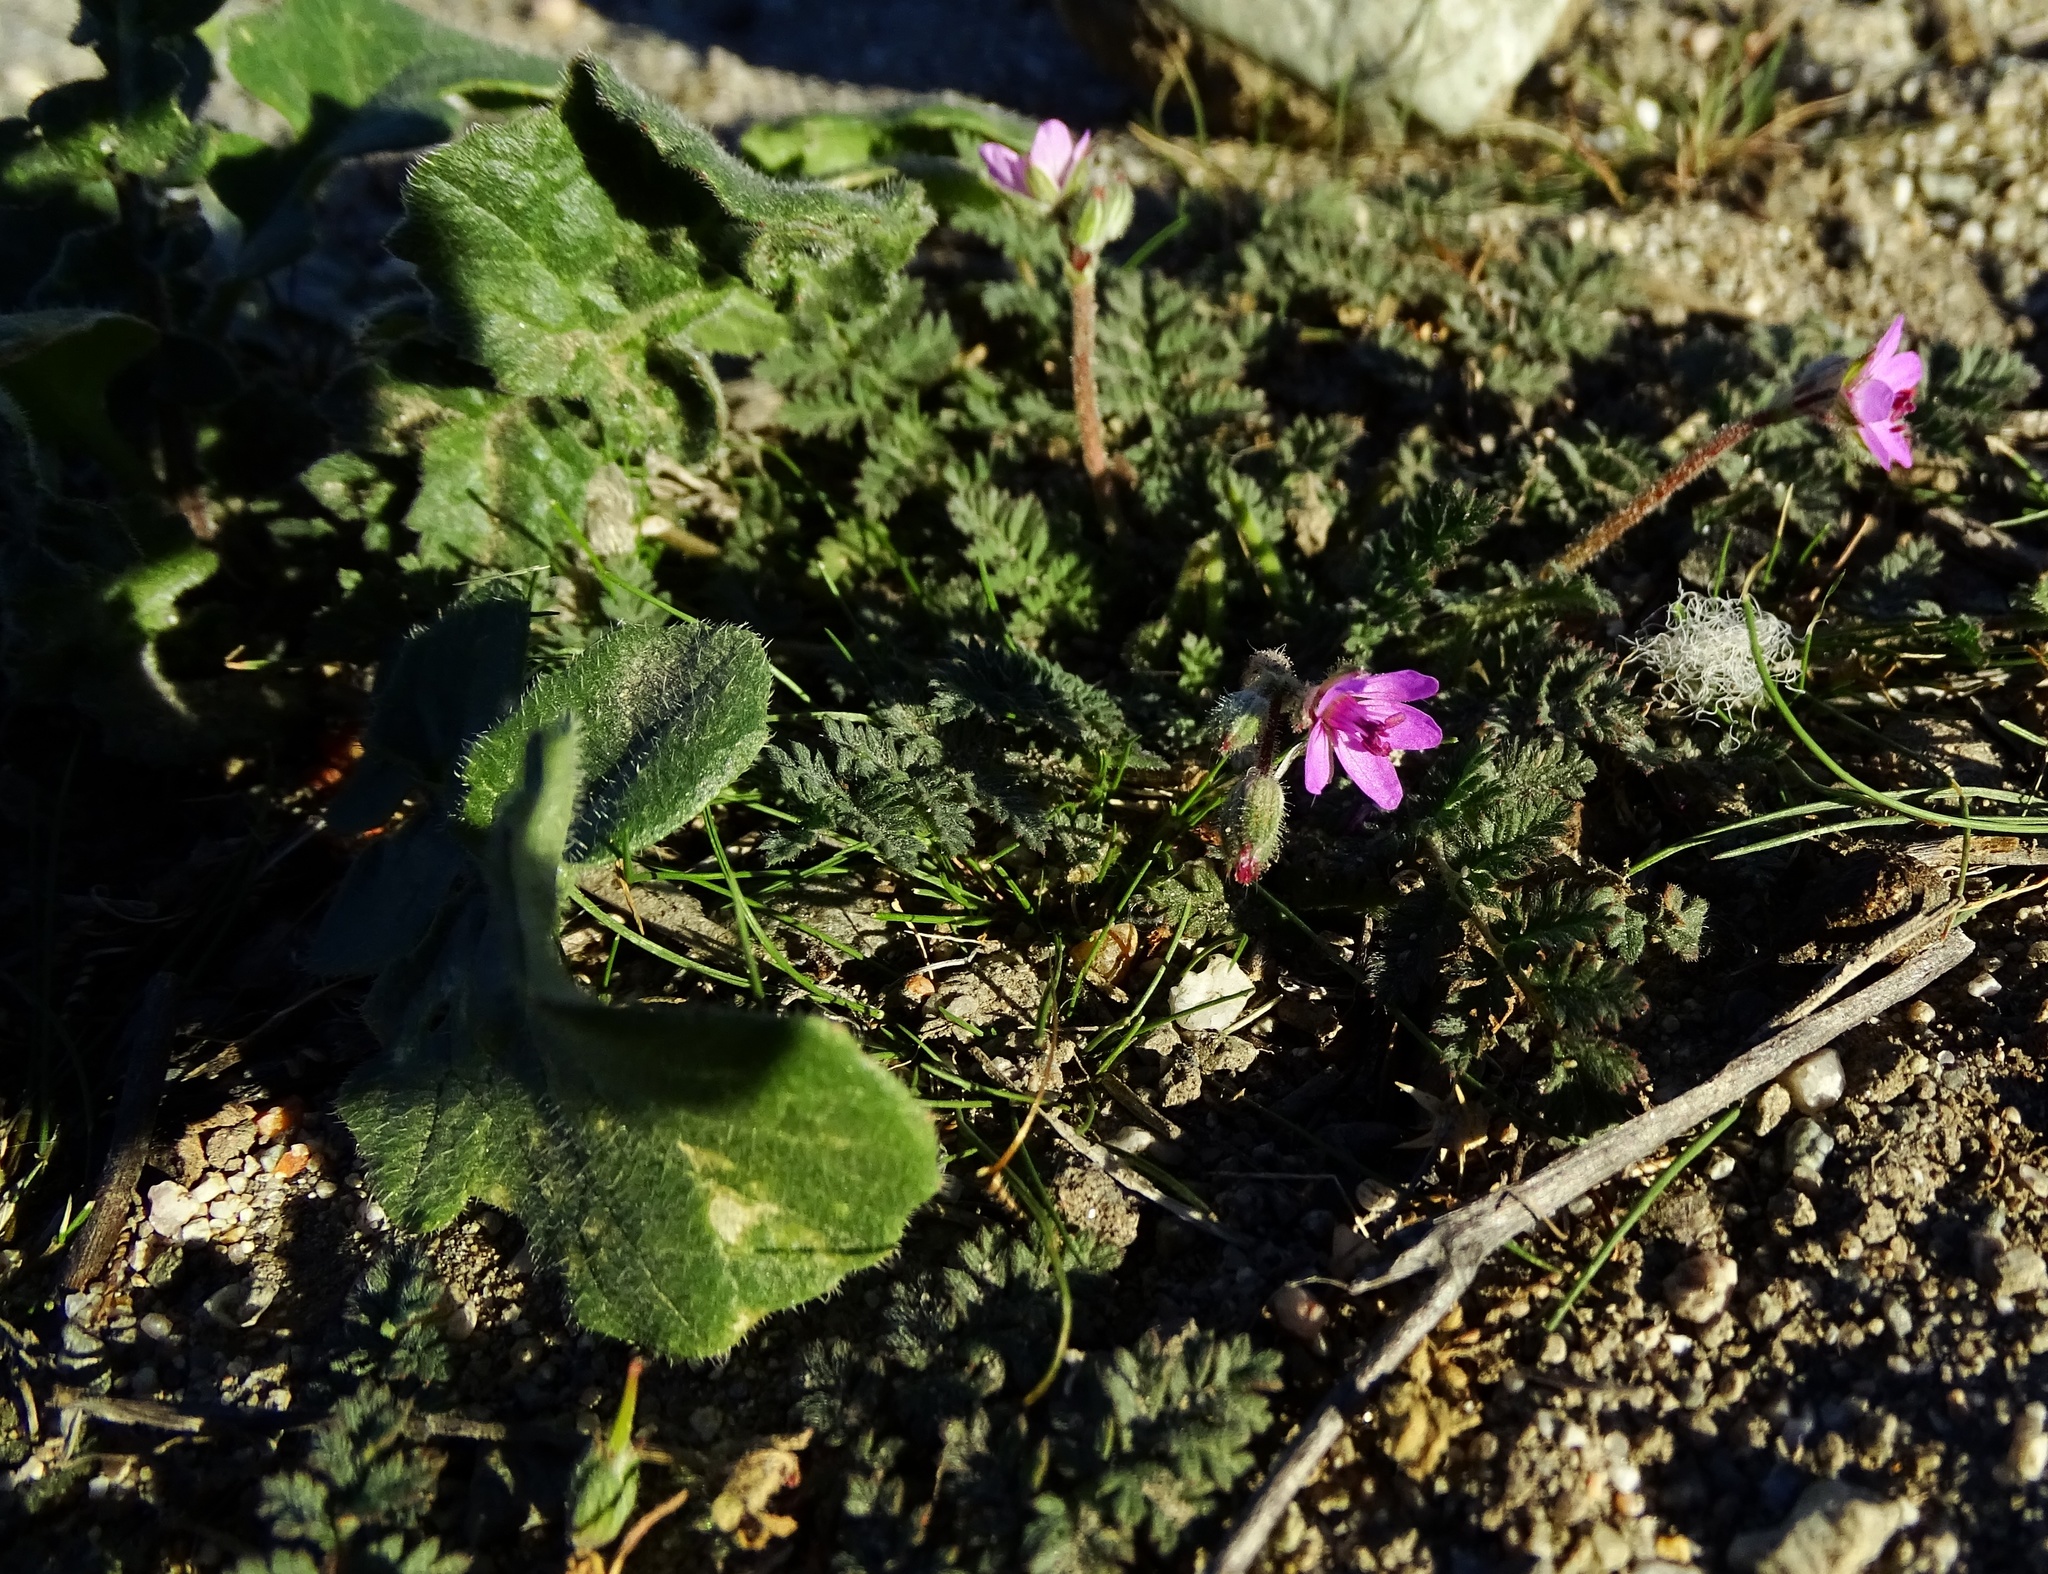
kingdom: Plantae
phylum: Tracheophyta
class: Magnoliopsida
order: Geraniales
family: Geraniaceae
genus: Erodium
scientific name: Erodium cicutarium
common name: Common stork's-bill
